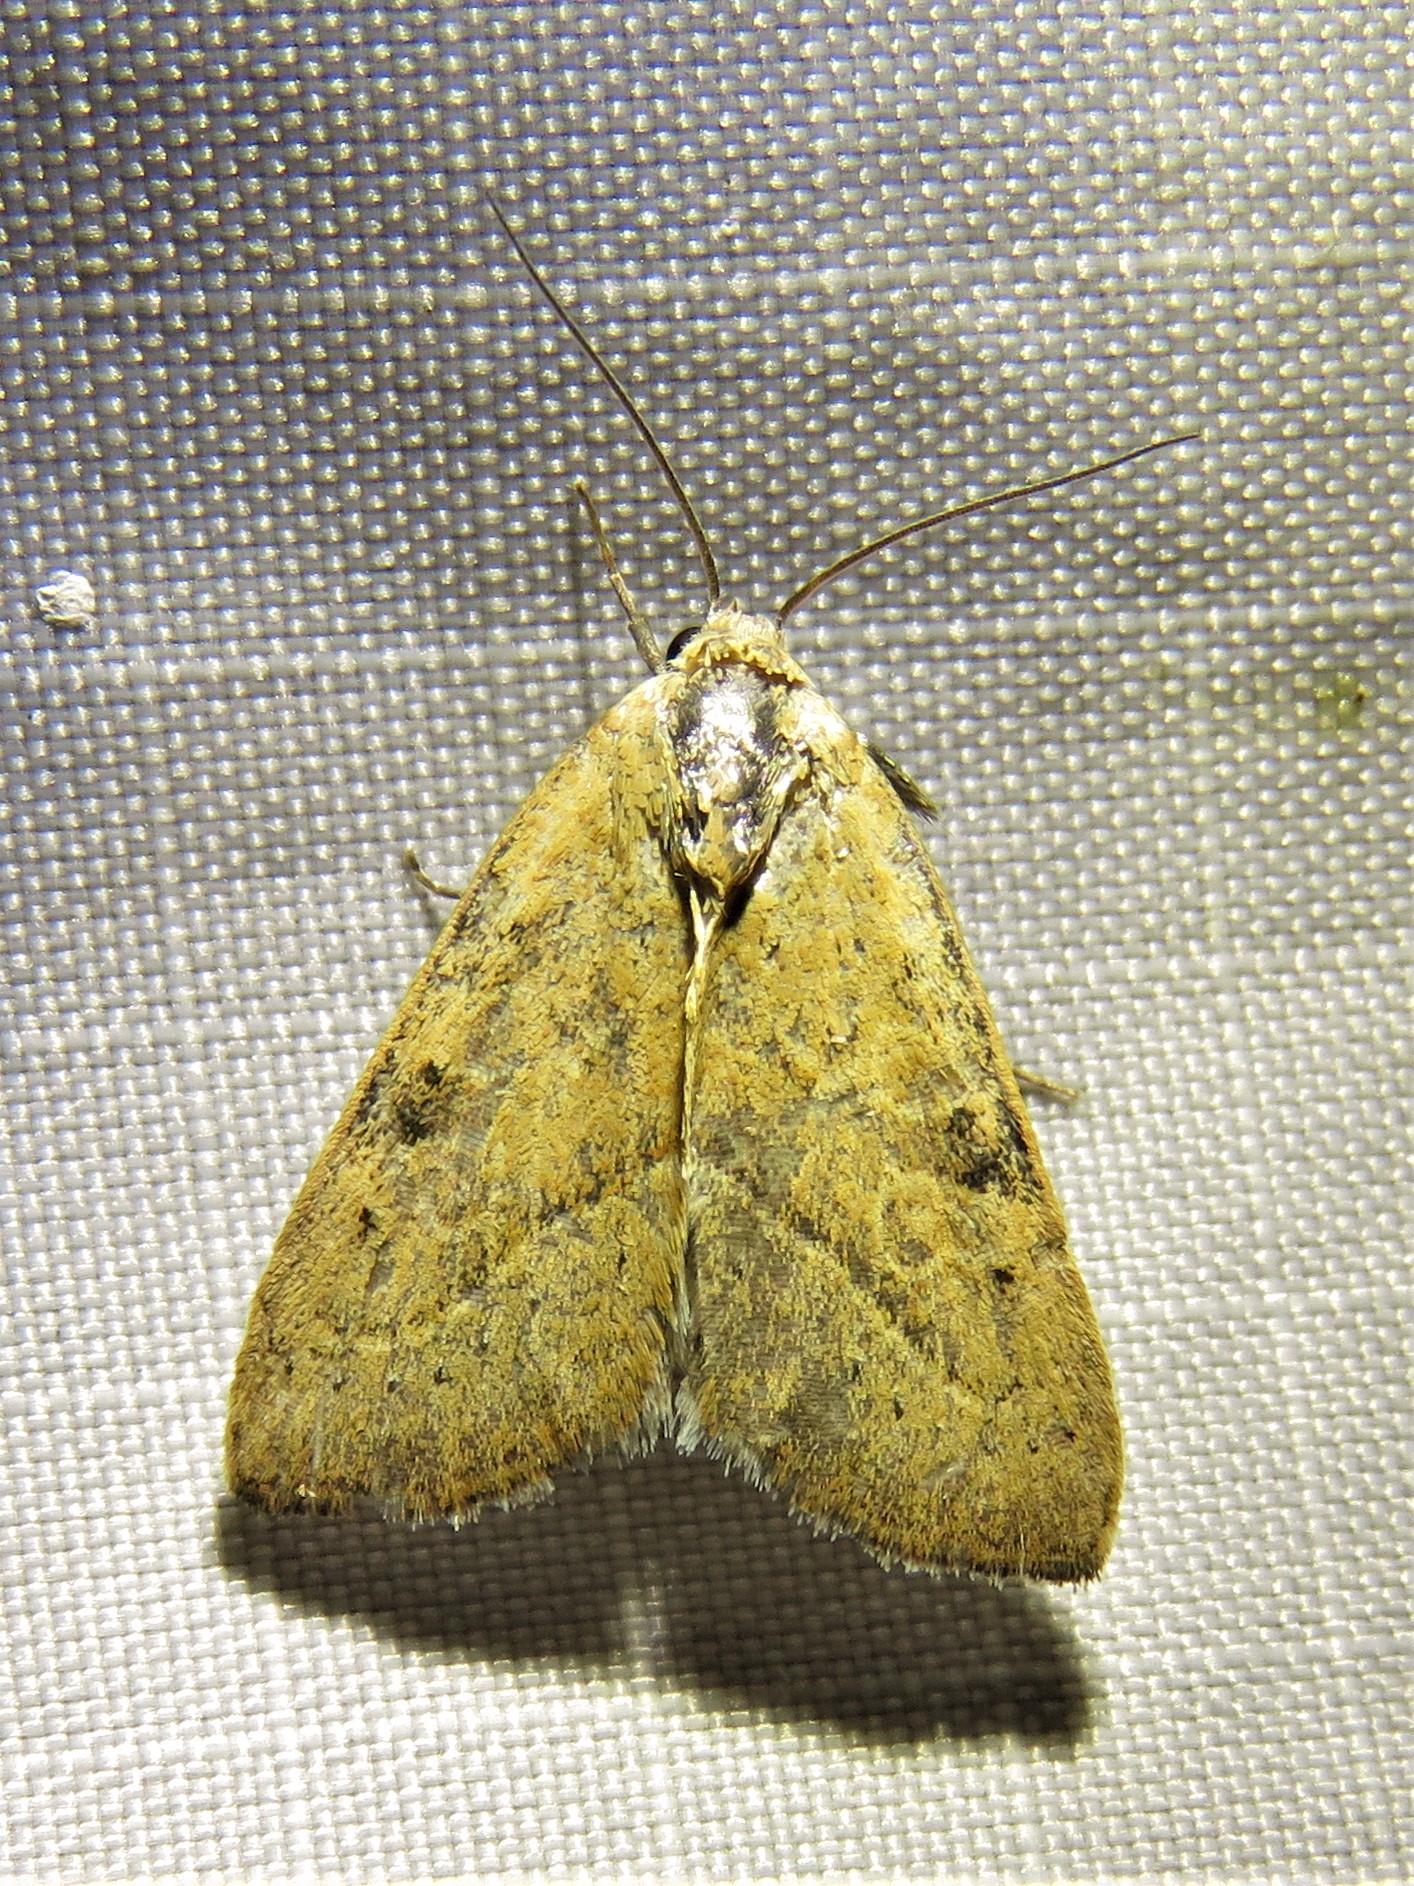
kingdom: Animalia
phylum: Arthropoda
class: Insecta
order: Lepidoptera
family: Noctuidae
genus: Galgula
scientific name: Galgula partita
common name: Wedgeling
